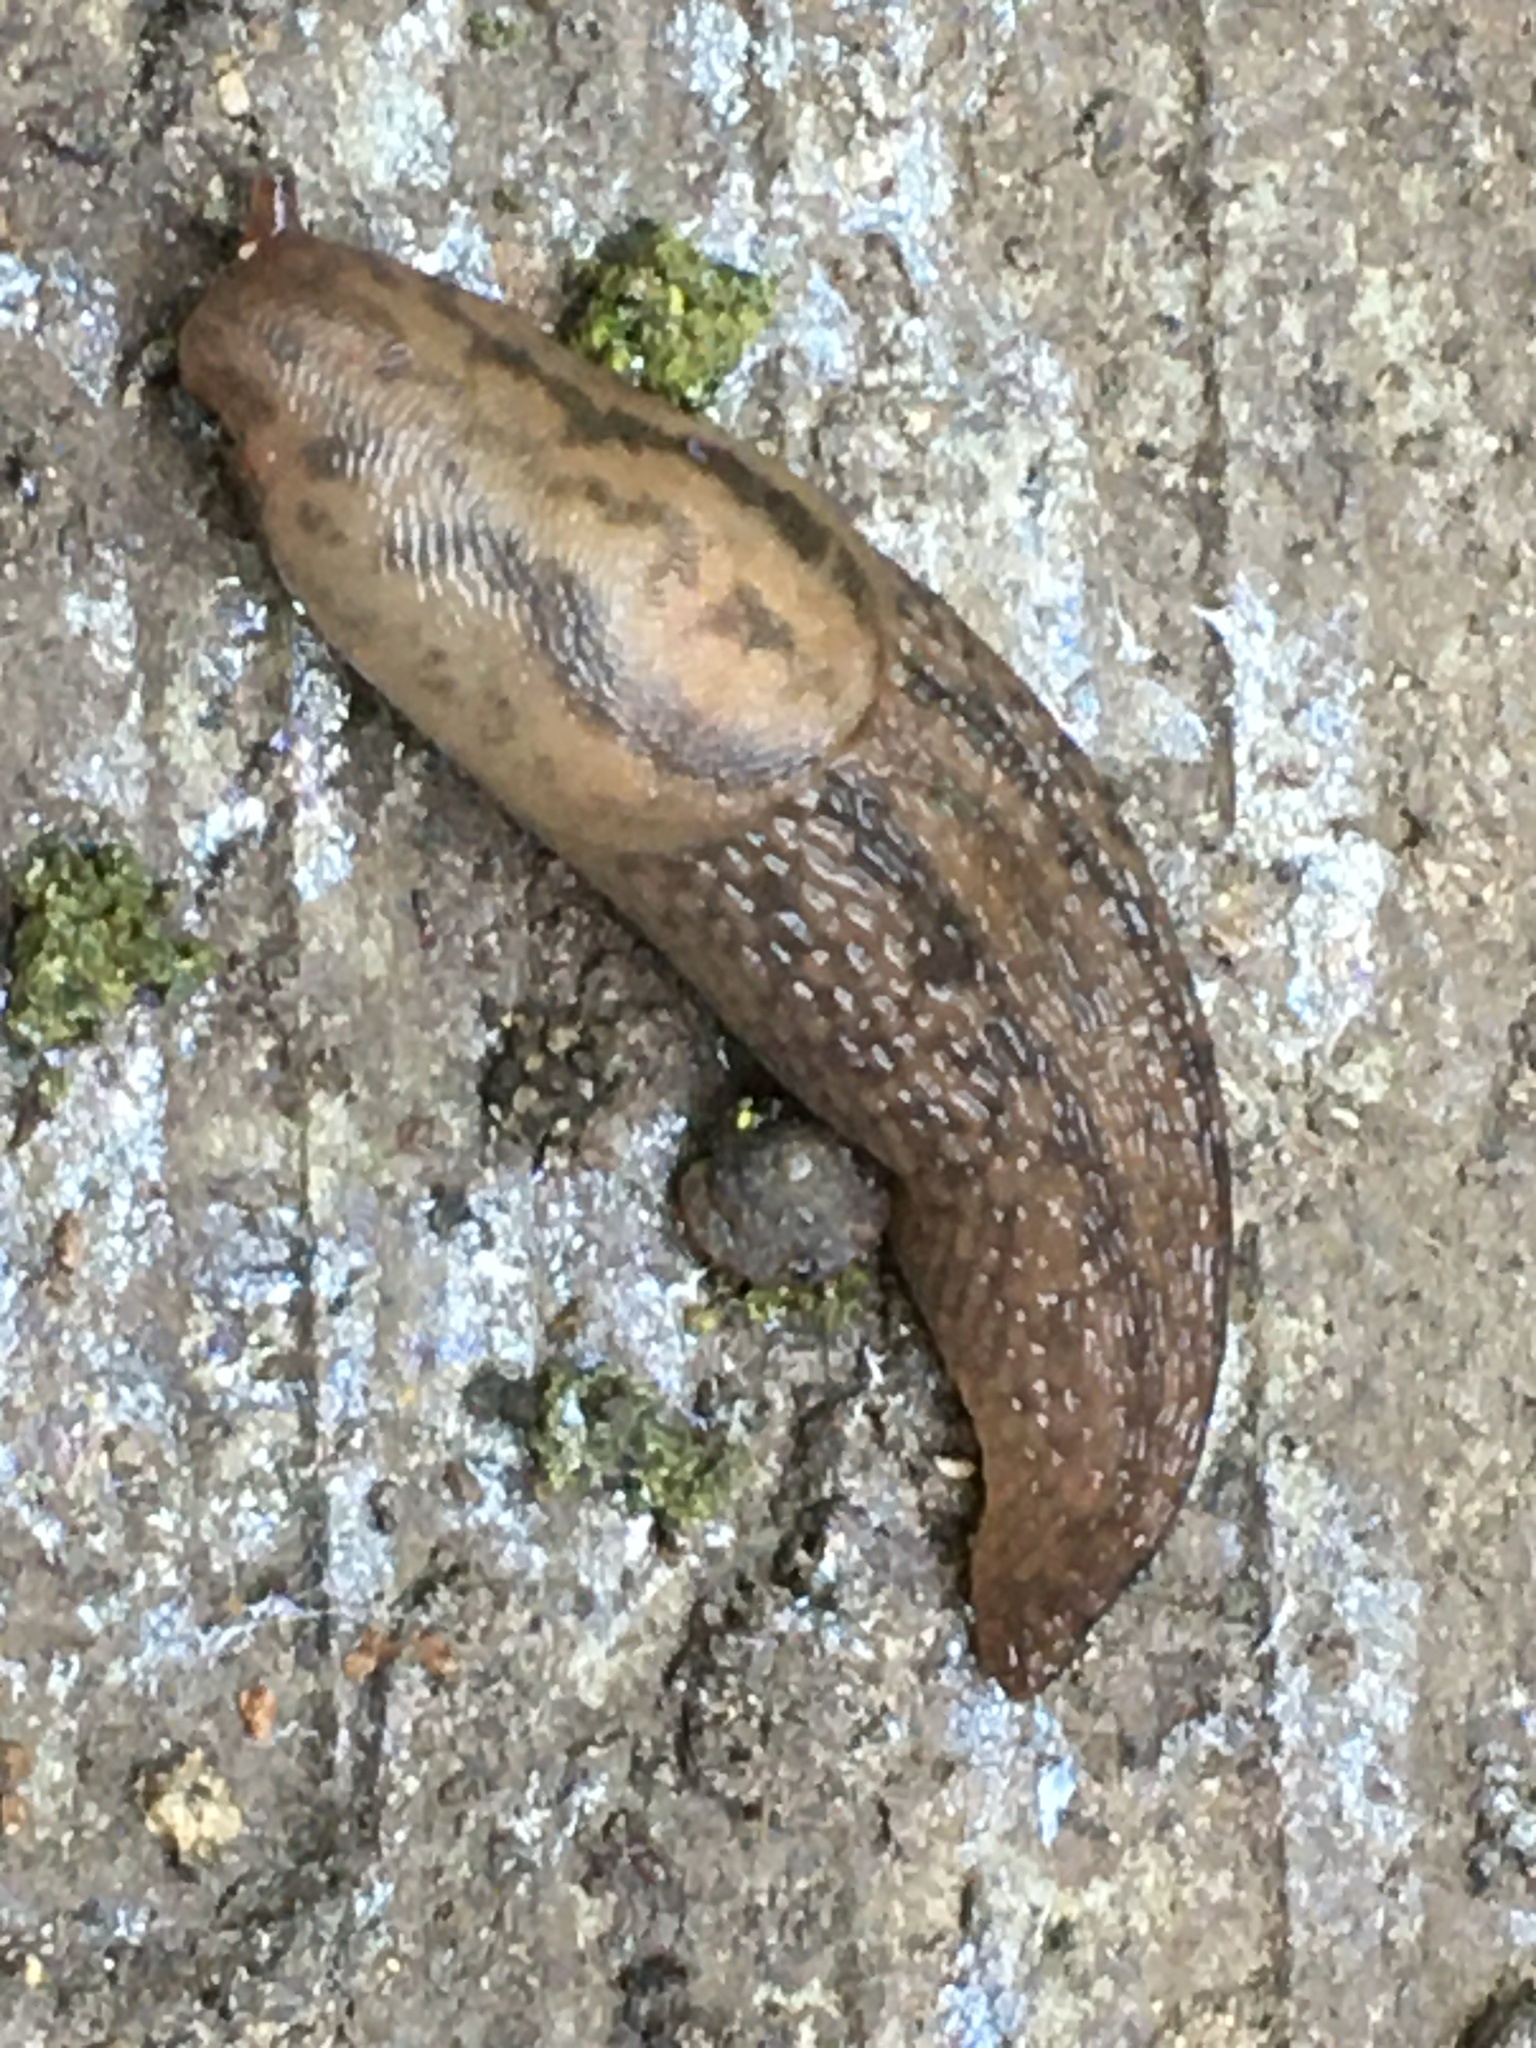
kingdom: Animalia
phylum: Mollusca
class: Gastropoda
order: Stylommatophora
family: Limacidae
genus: Ambigolimax
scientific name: Ambigolimax
